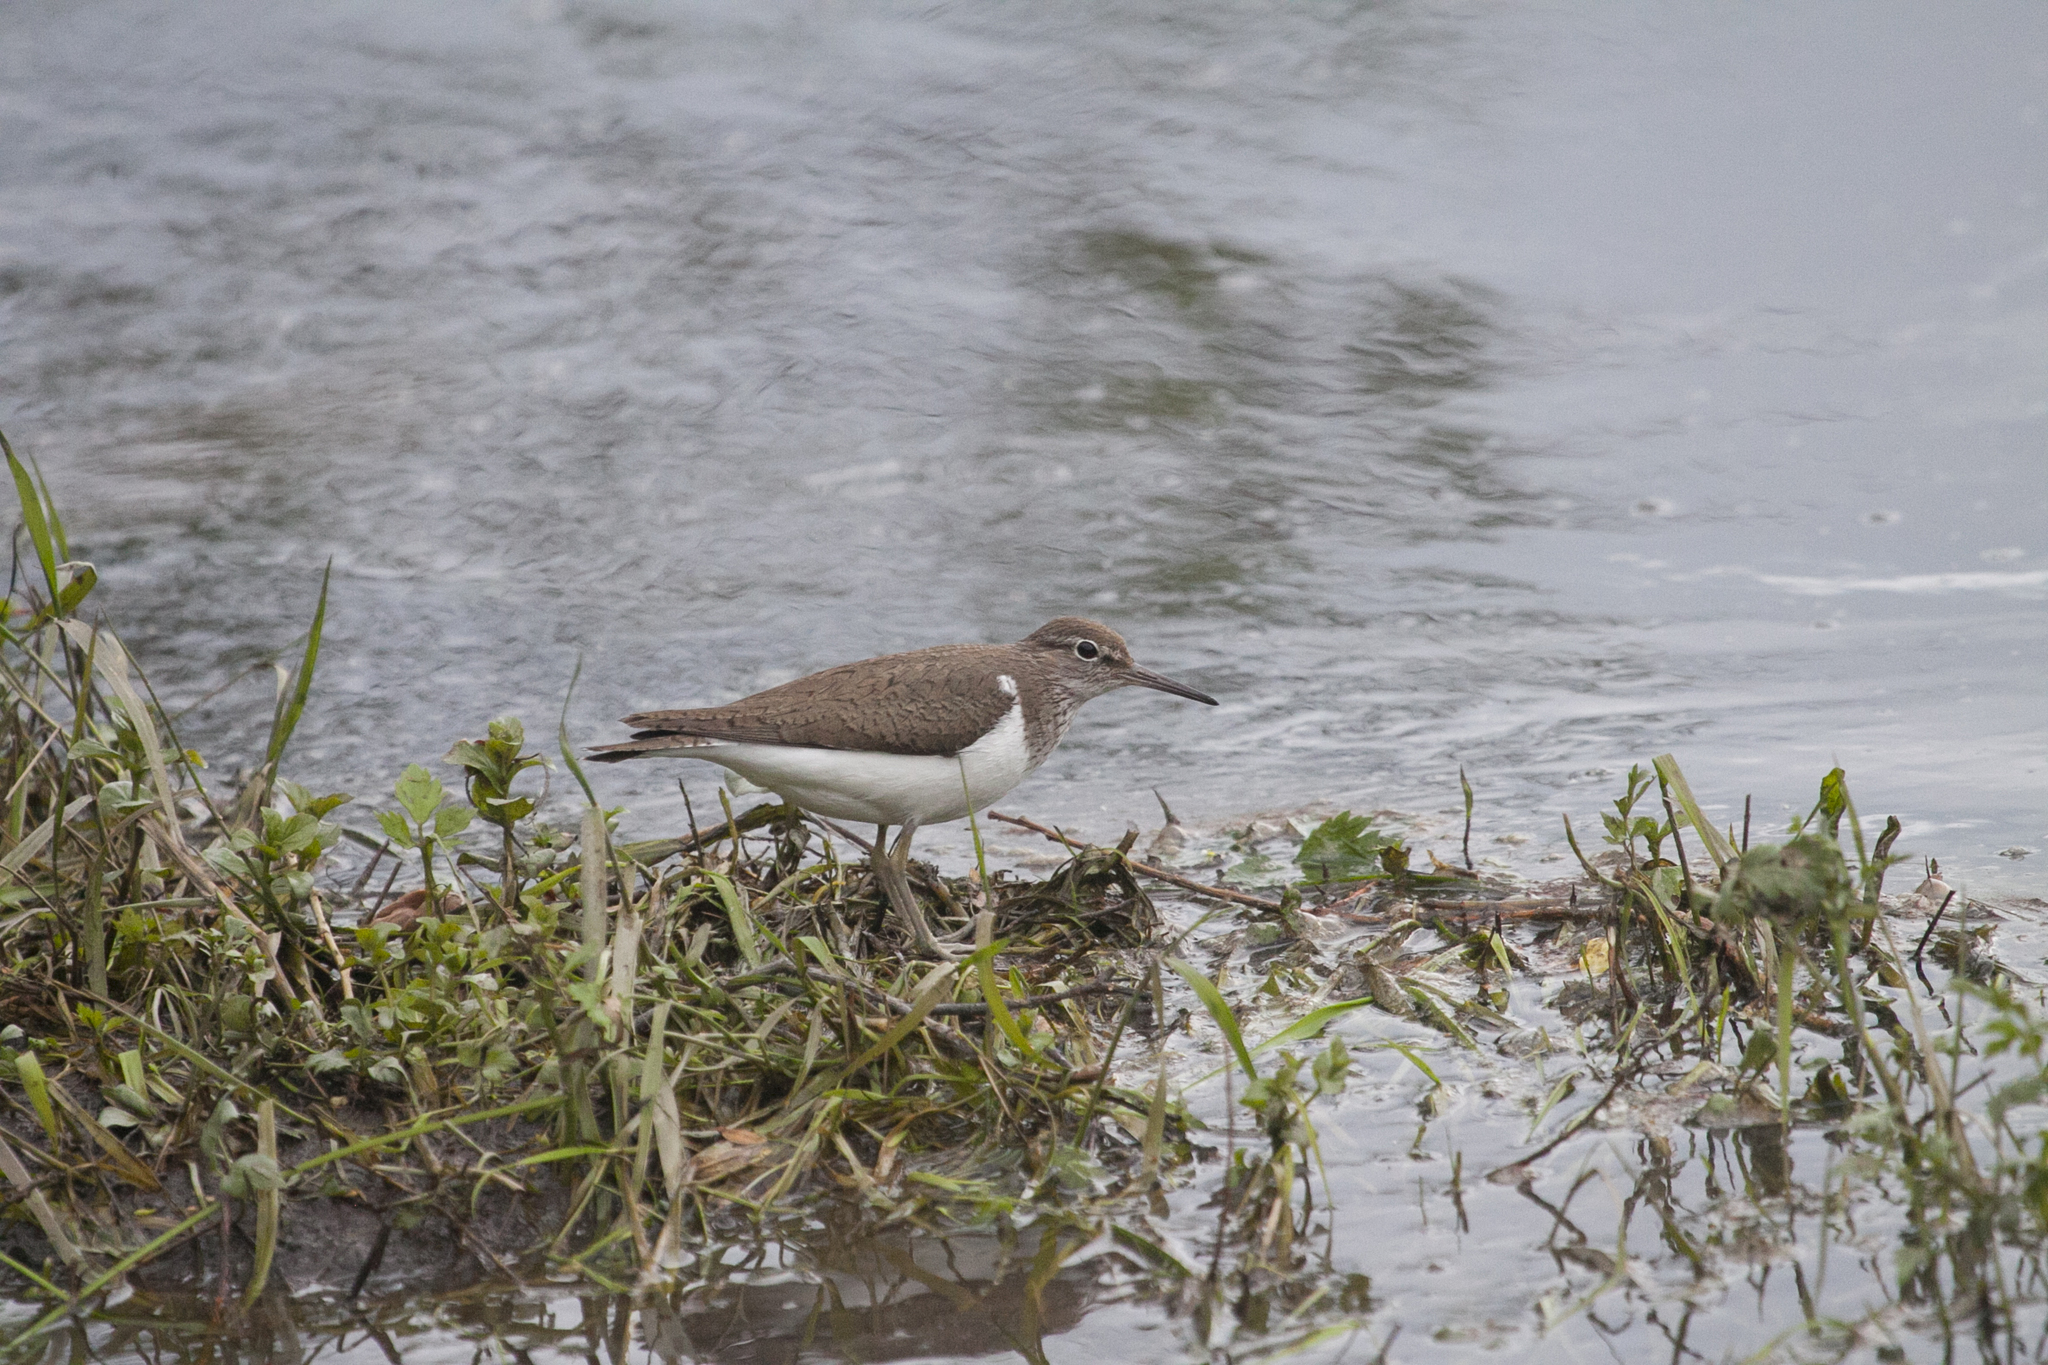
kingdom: Animalia
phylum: Chordata
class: Aves
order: Charadriiformes
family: Scolopacidae
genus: Actitis
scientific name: Actitis hypoleucos
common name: Common sandpiper
